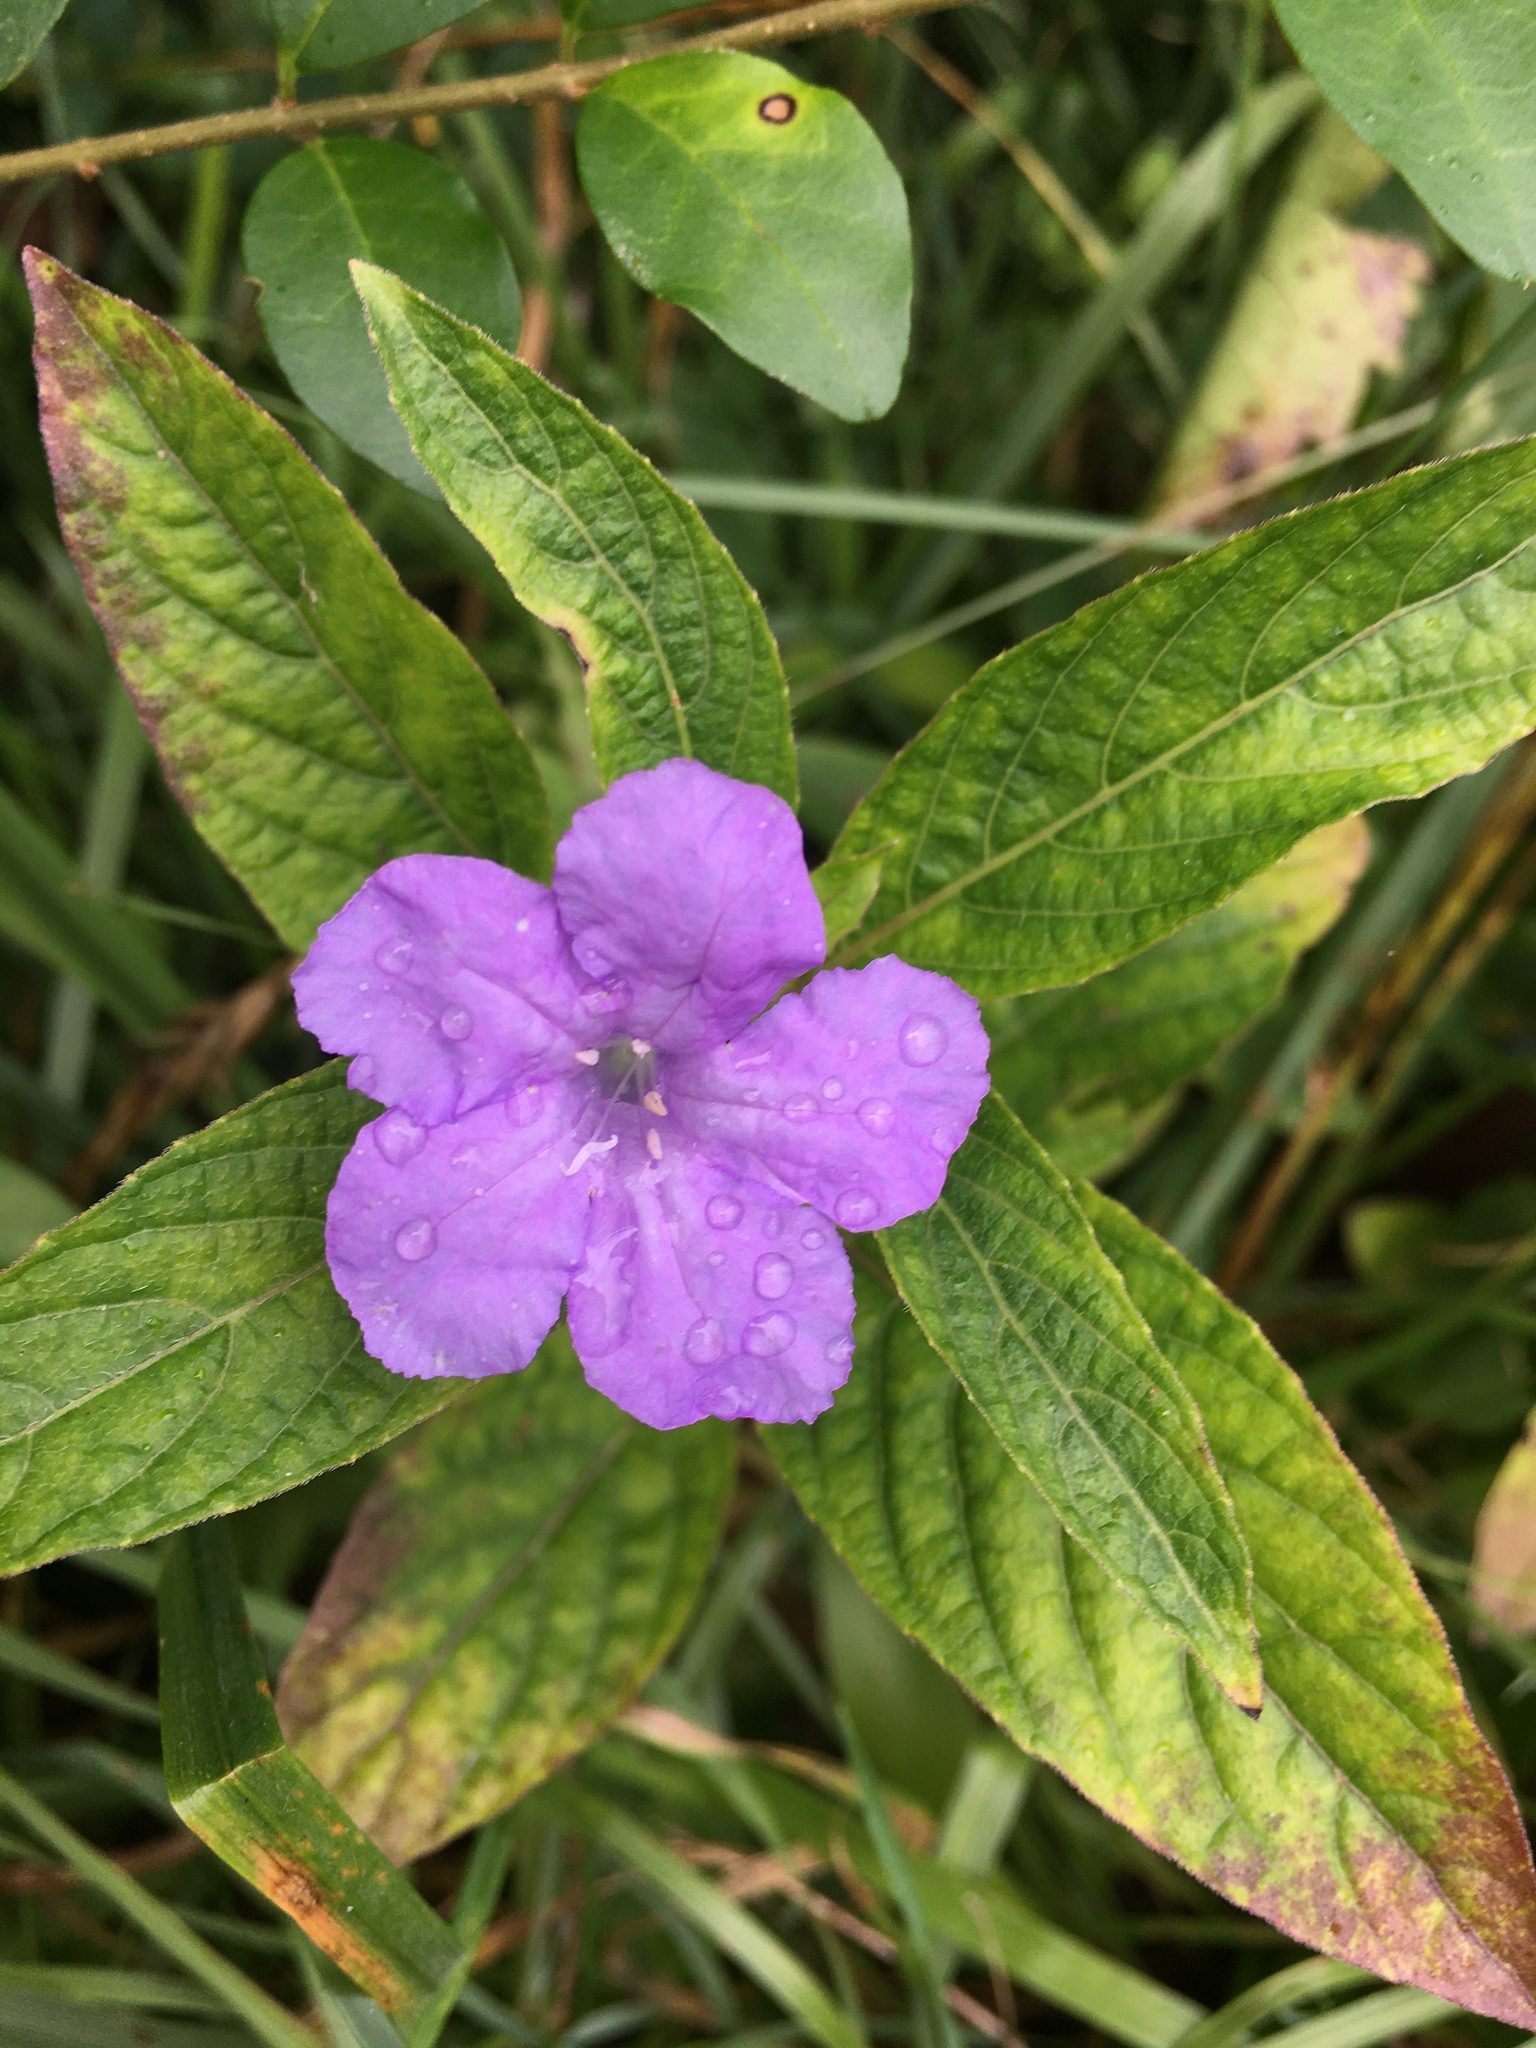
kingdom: Plantae
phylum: Tracheophyta
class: Magnoliopsida
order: Lamiales
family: Acanthaceae
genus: Ruellia
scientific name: Ruellia caroliniensis
